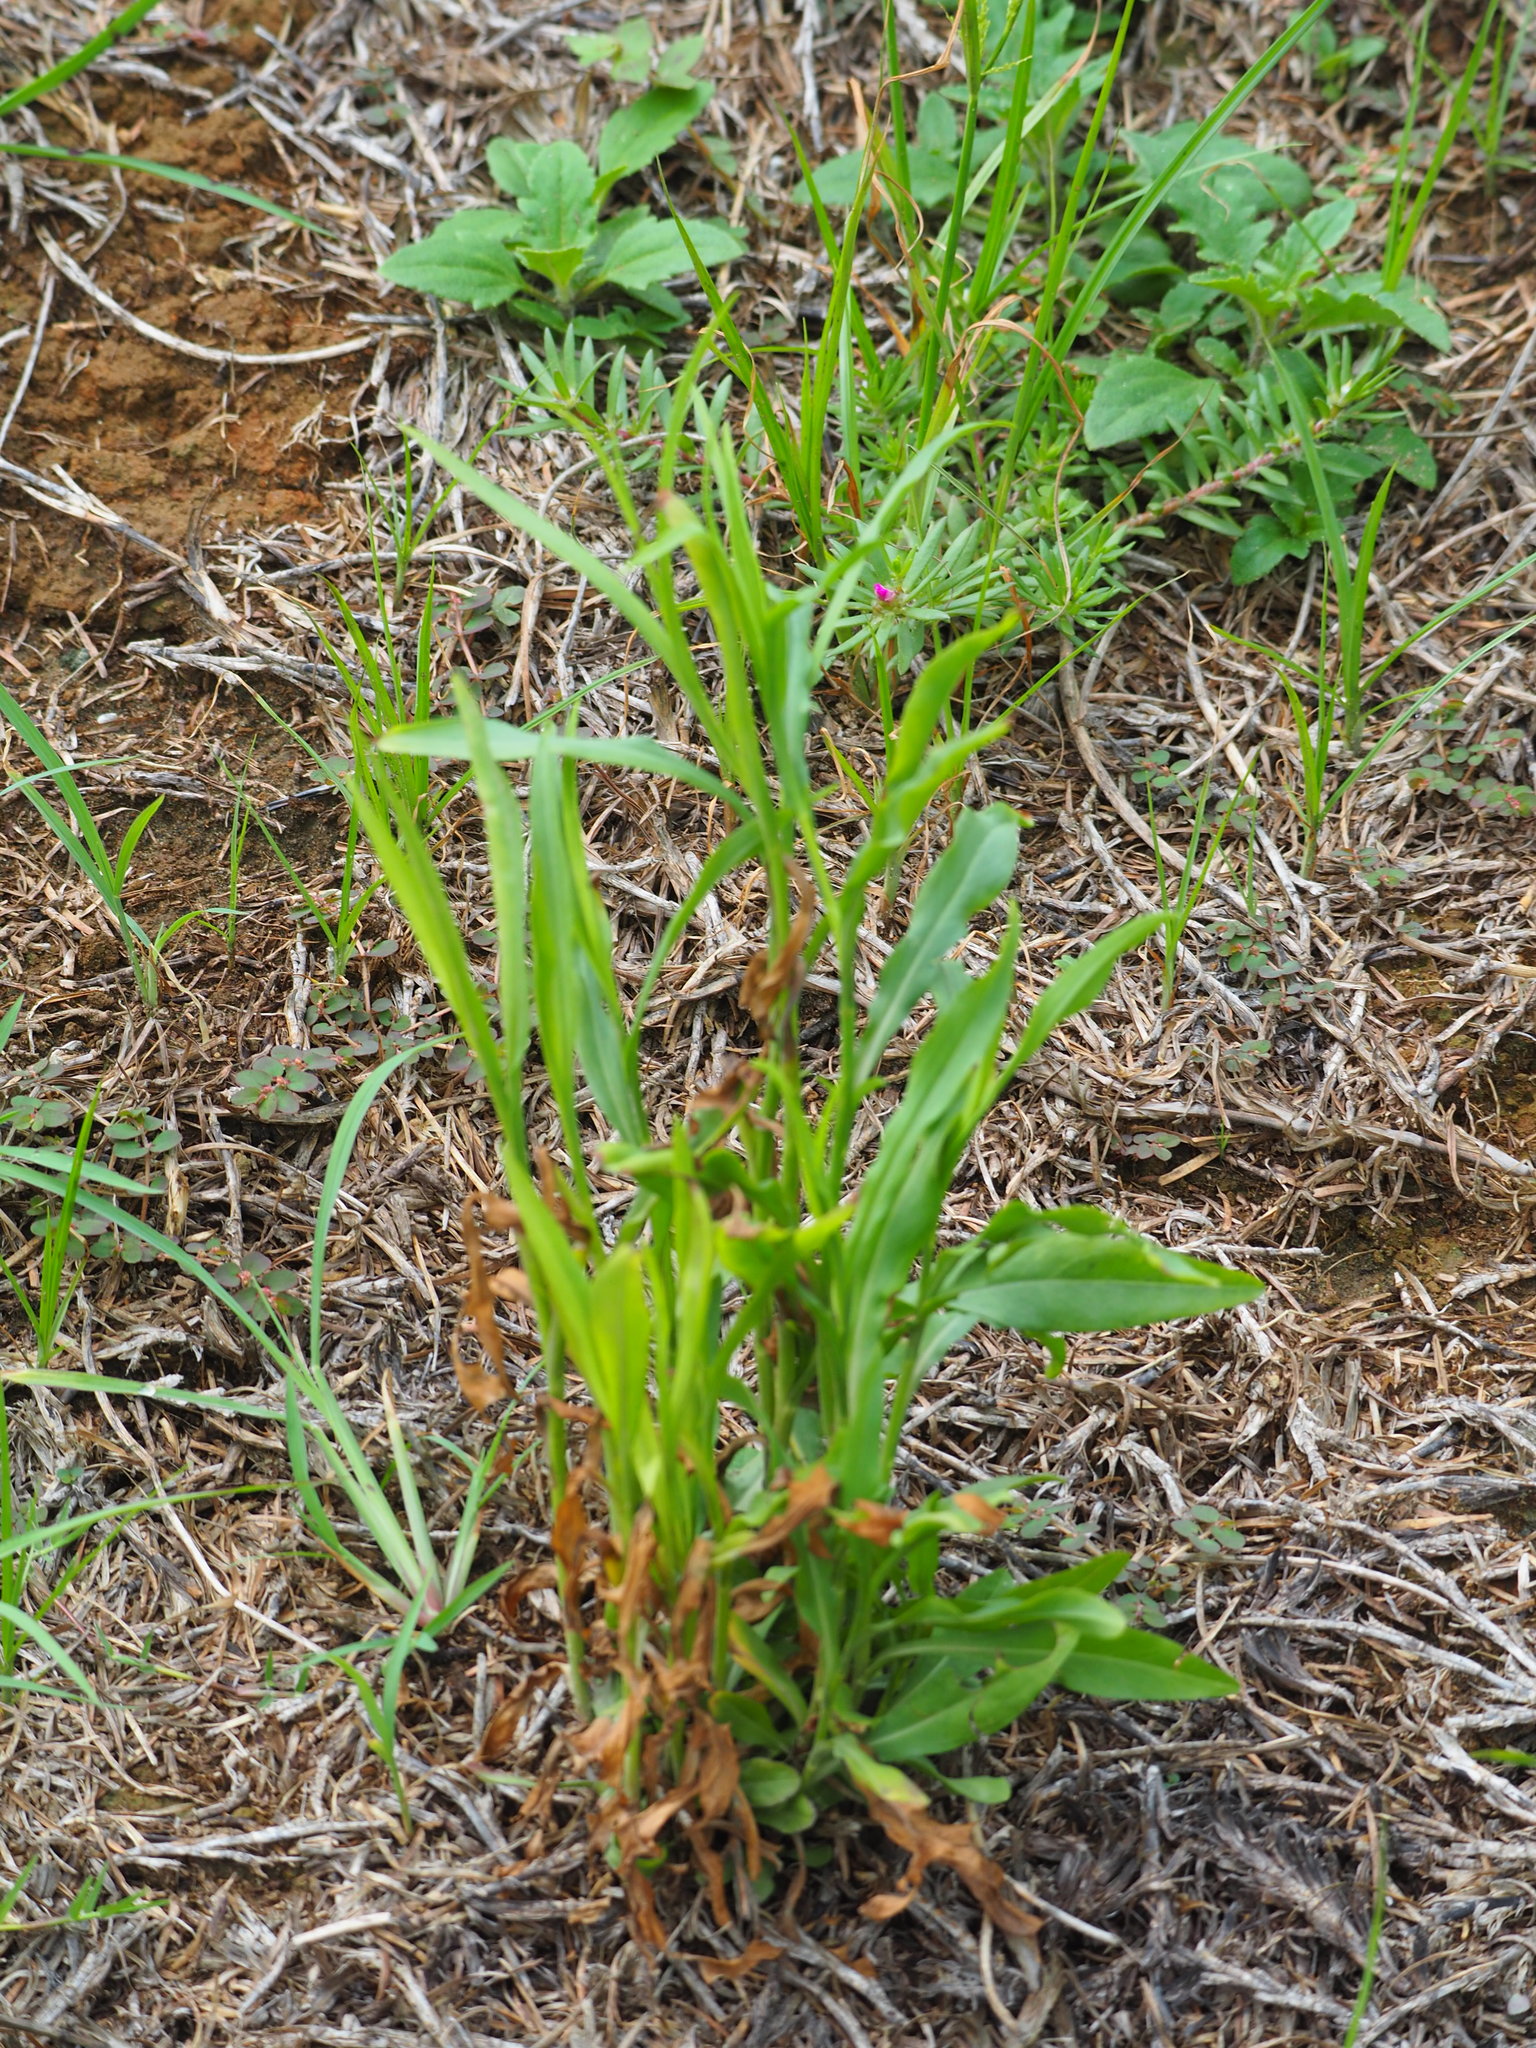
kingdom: Plantae
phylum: Tracheophyta
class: Magnoliopsida
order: Asterales
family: Asteraceae
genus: Symphyotrichum
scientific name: Symphyotrichum subulatum
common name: Annual saltmarsh aster
